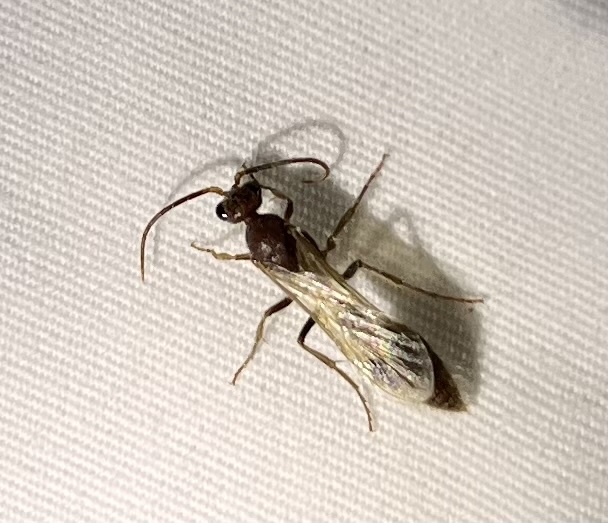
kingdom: Animalia
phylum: Arthropoda
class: Insecta
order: Hymenoptera
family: Chyphotidae
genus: Chyphotes
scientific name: Chyphotes
